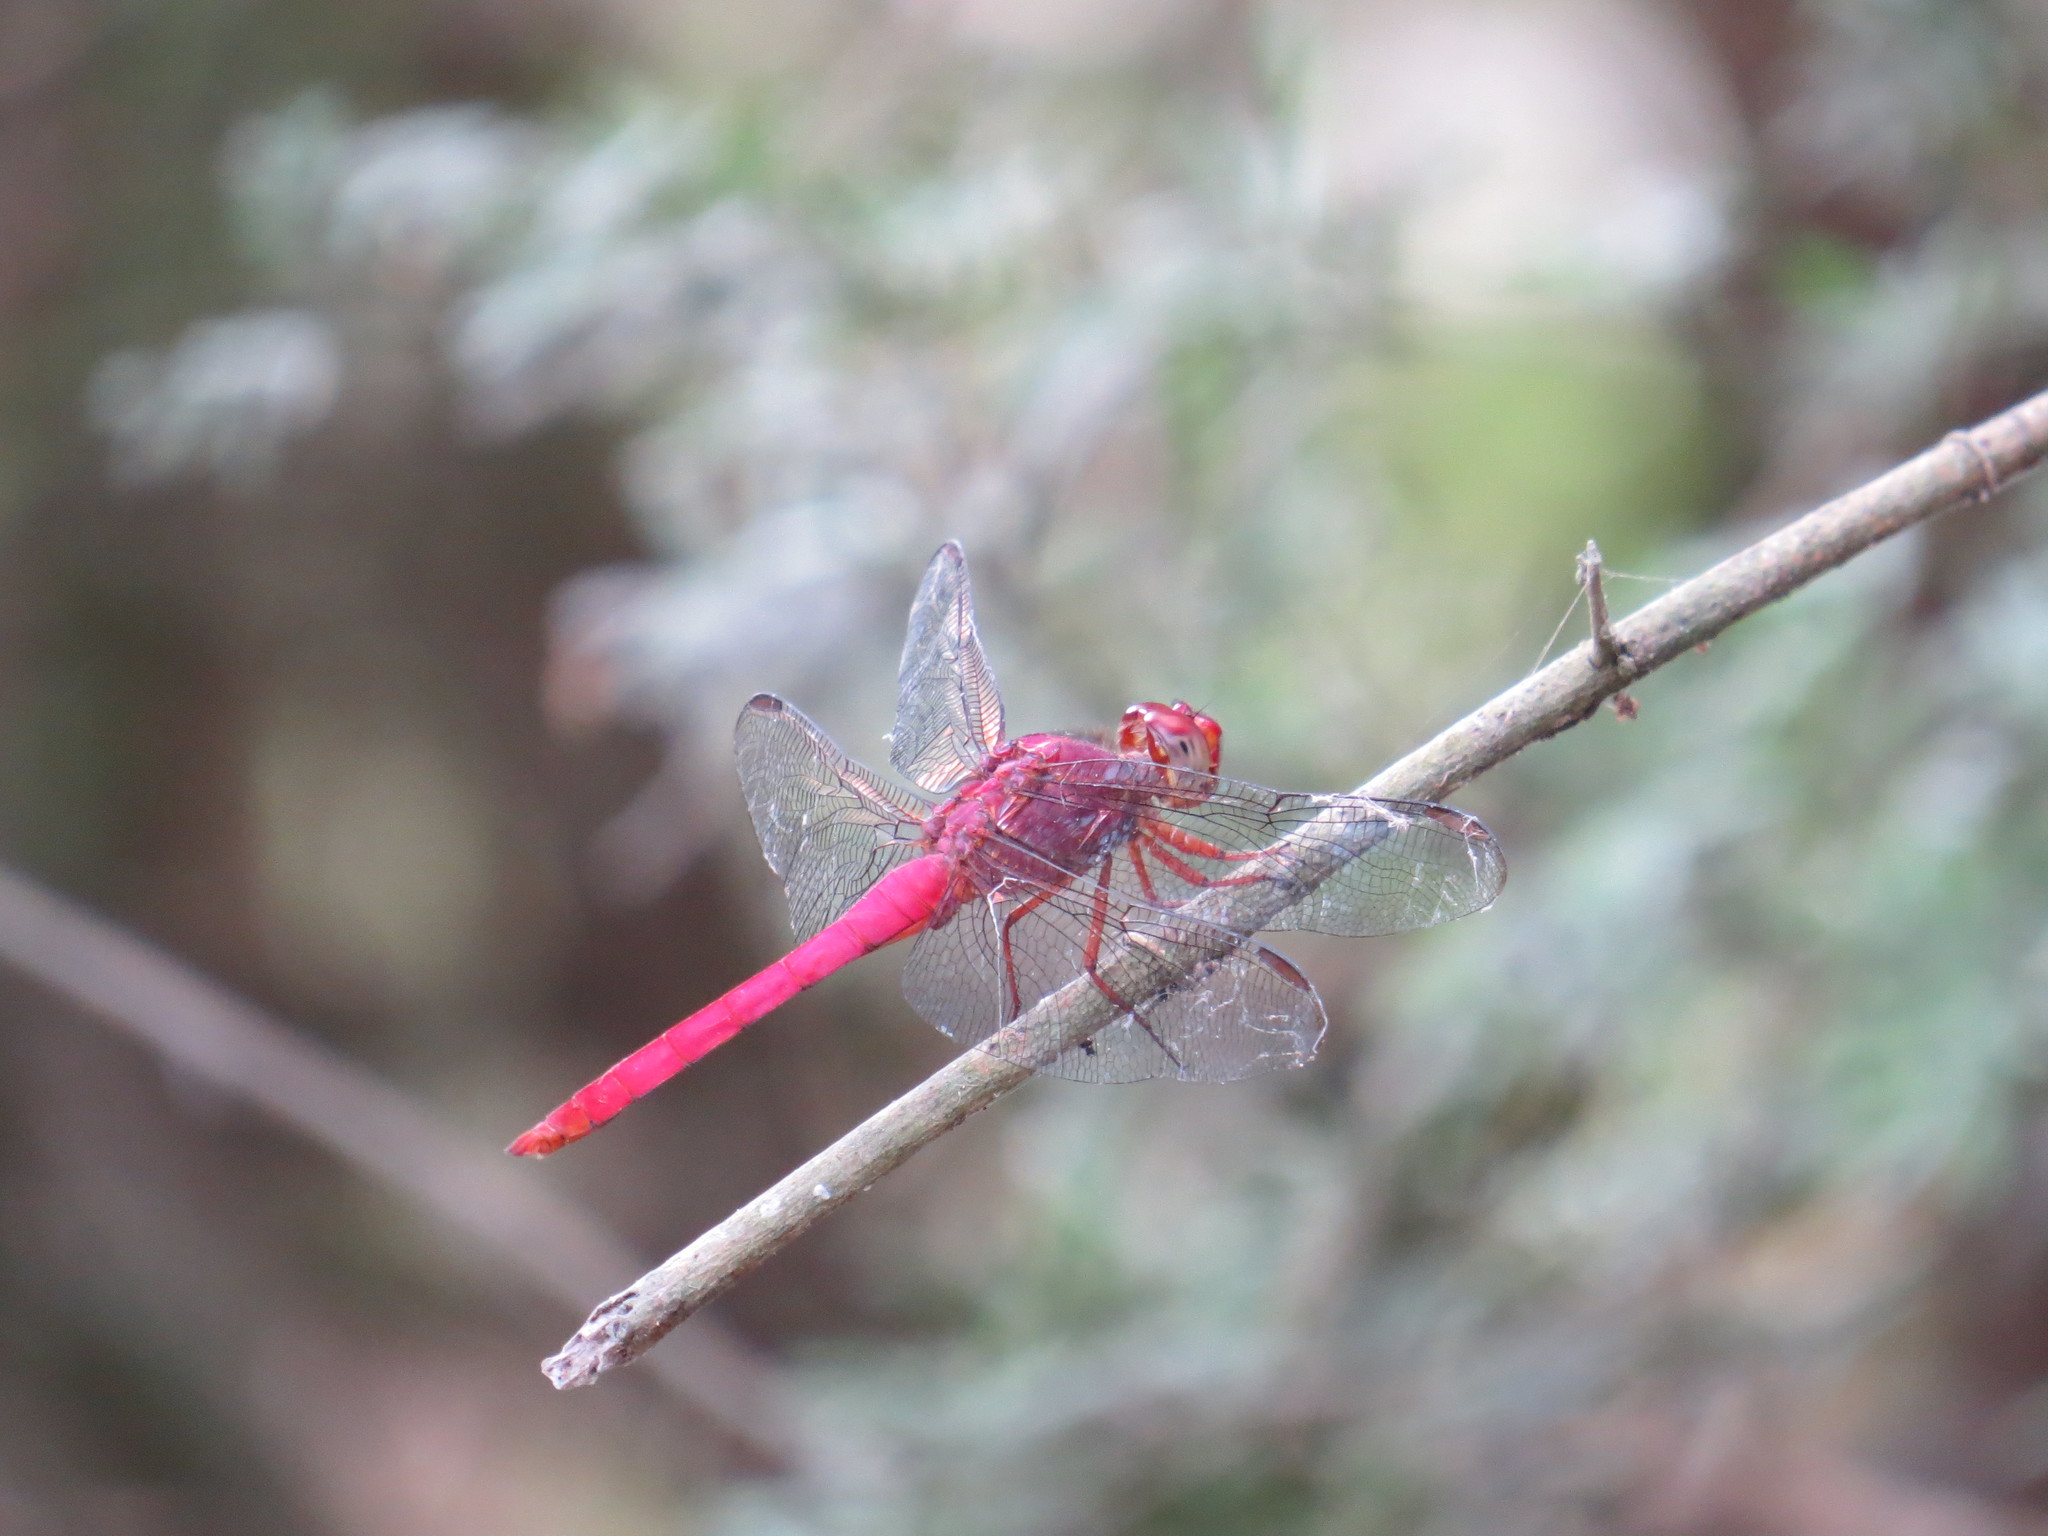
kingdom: Animalia
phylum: Arthropoda
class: Insecta
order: Odonata
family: Libellulidae
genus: Orthemis
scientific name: Orthemis discolor
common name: Carmine skimmer
